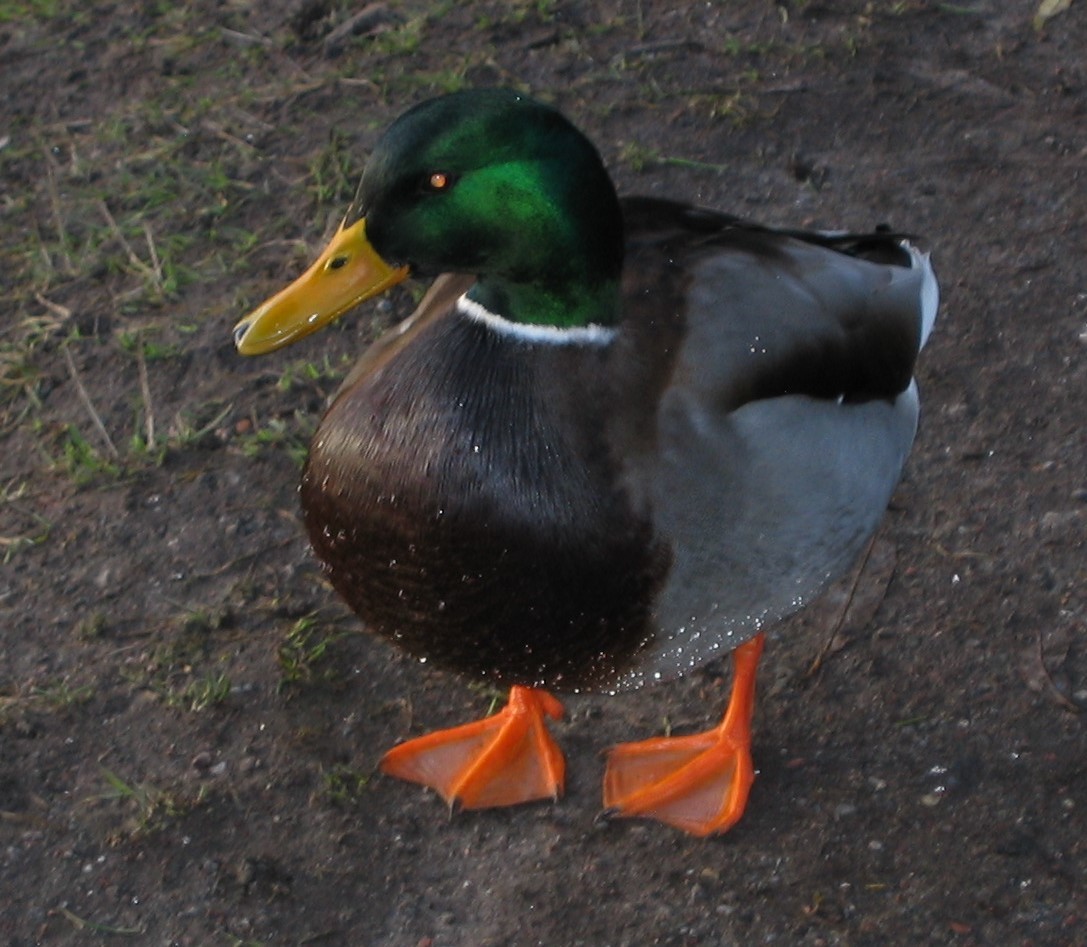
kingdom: Animalia
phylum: Chordata
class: Aves
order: Anseriformes
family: Anatidae
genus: Anas
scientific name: Anas platyrhynchos
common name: Mallard
